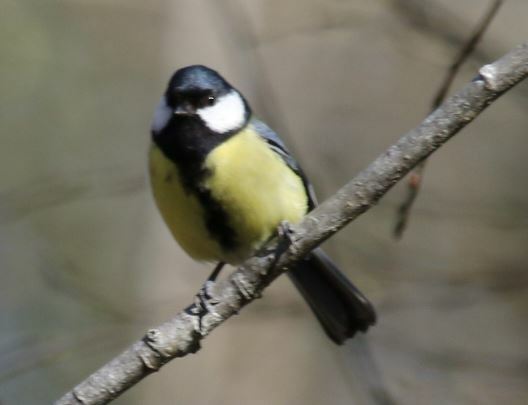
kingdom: Animalia
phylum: Chordata
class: Aves
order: Passeriformes
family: Paridae
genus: Parus
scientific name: Parus major
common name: Great tit
